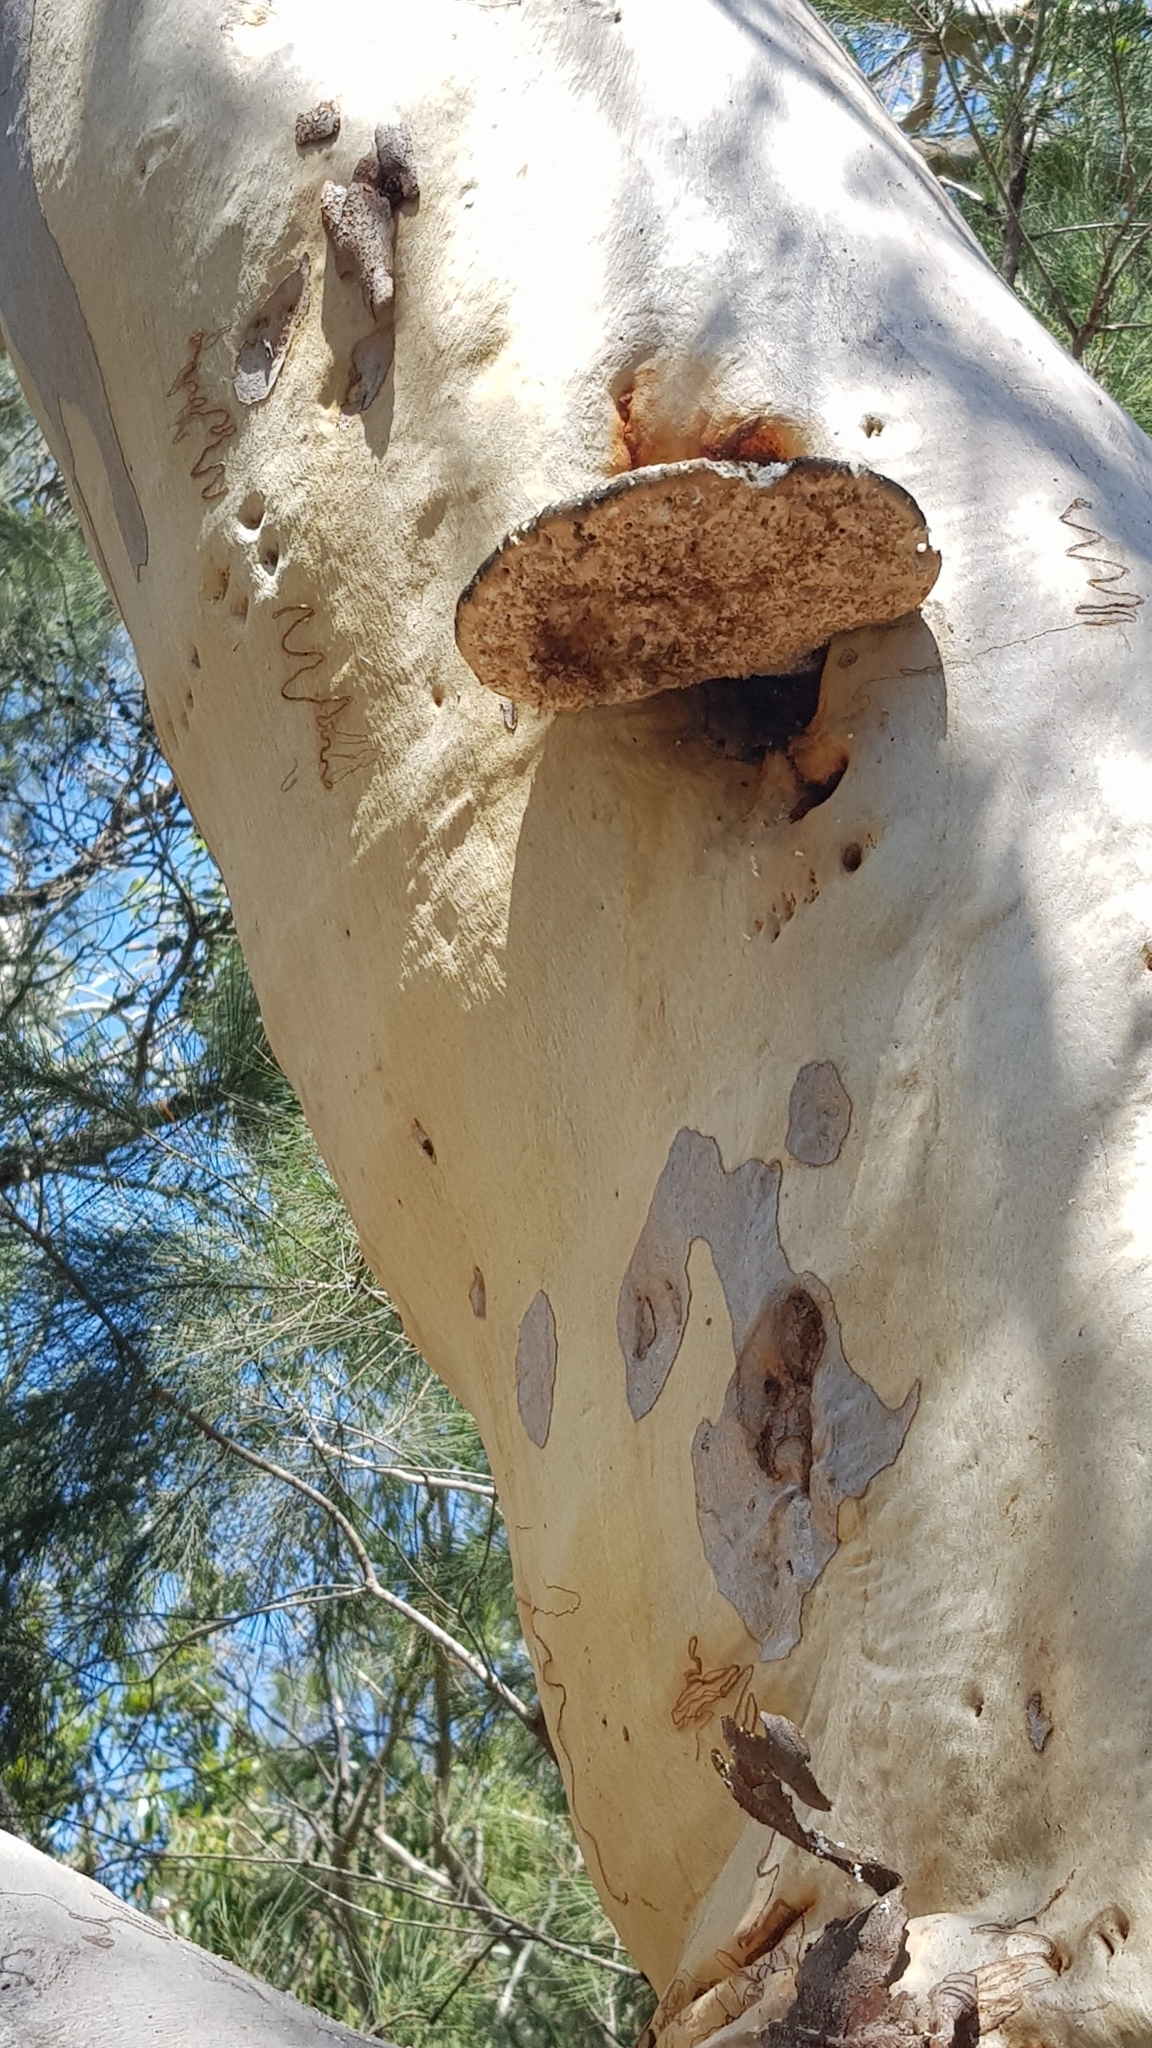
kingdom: Fungi
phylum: Basidiomycota
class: Agaricomycetes
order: Polyporales
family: Laetiporaceae
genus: Laetiporus
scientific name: Laetiporus portentosus
